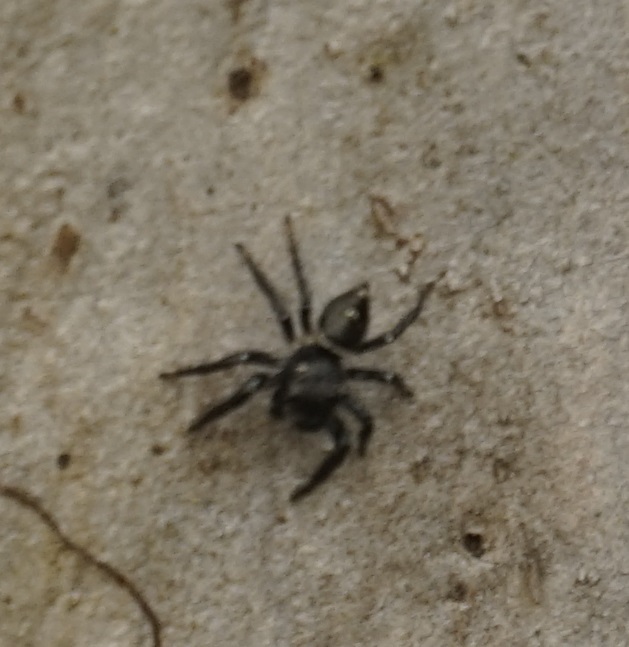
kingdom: Animalia
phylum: Arthropoda
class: Arachnida
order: Araneae
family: Salticidae
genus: Zenodorus
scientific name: Zenodorus orbiculatus
